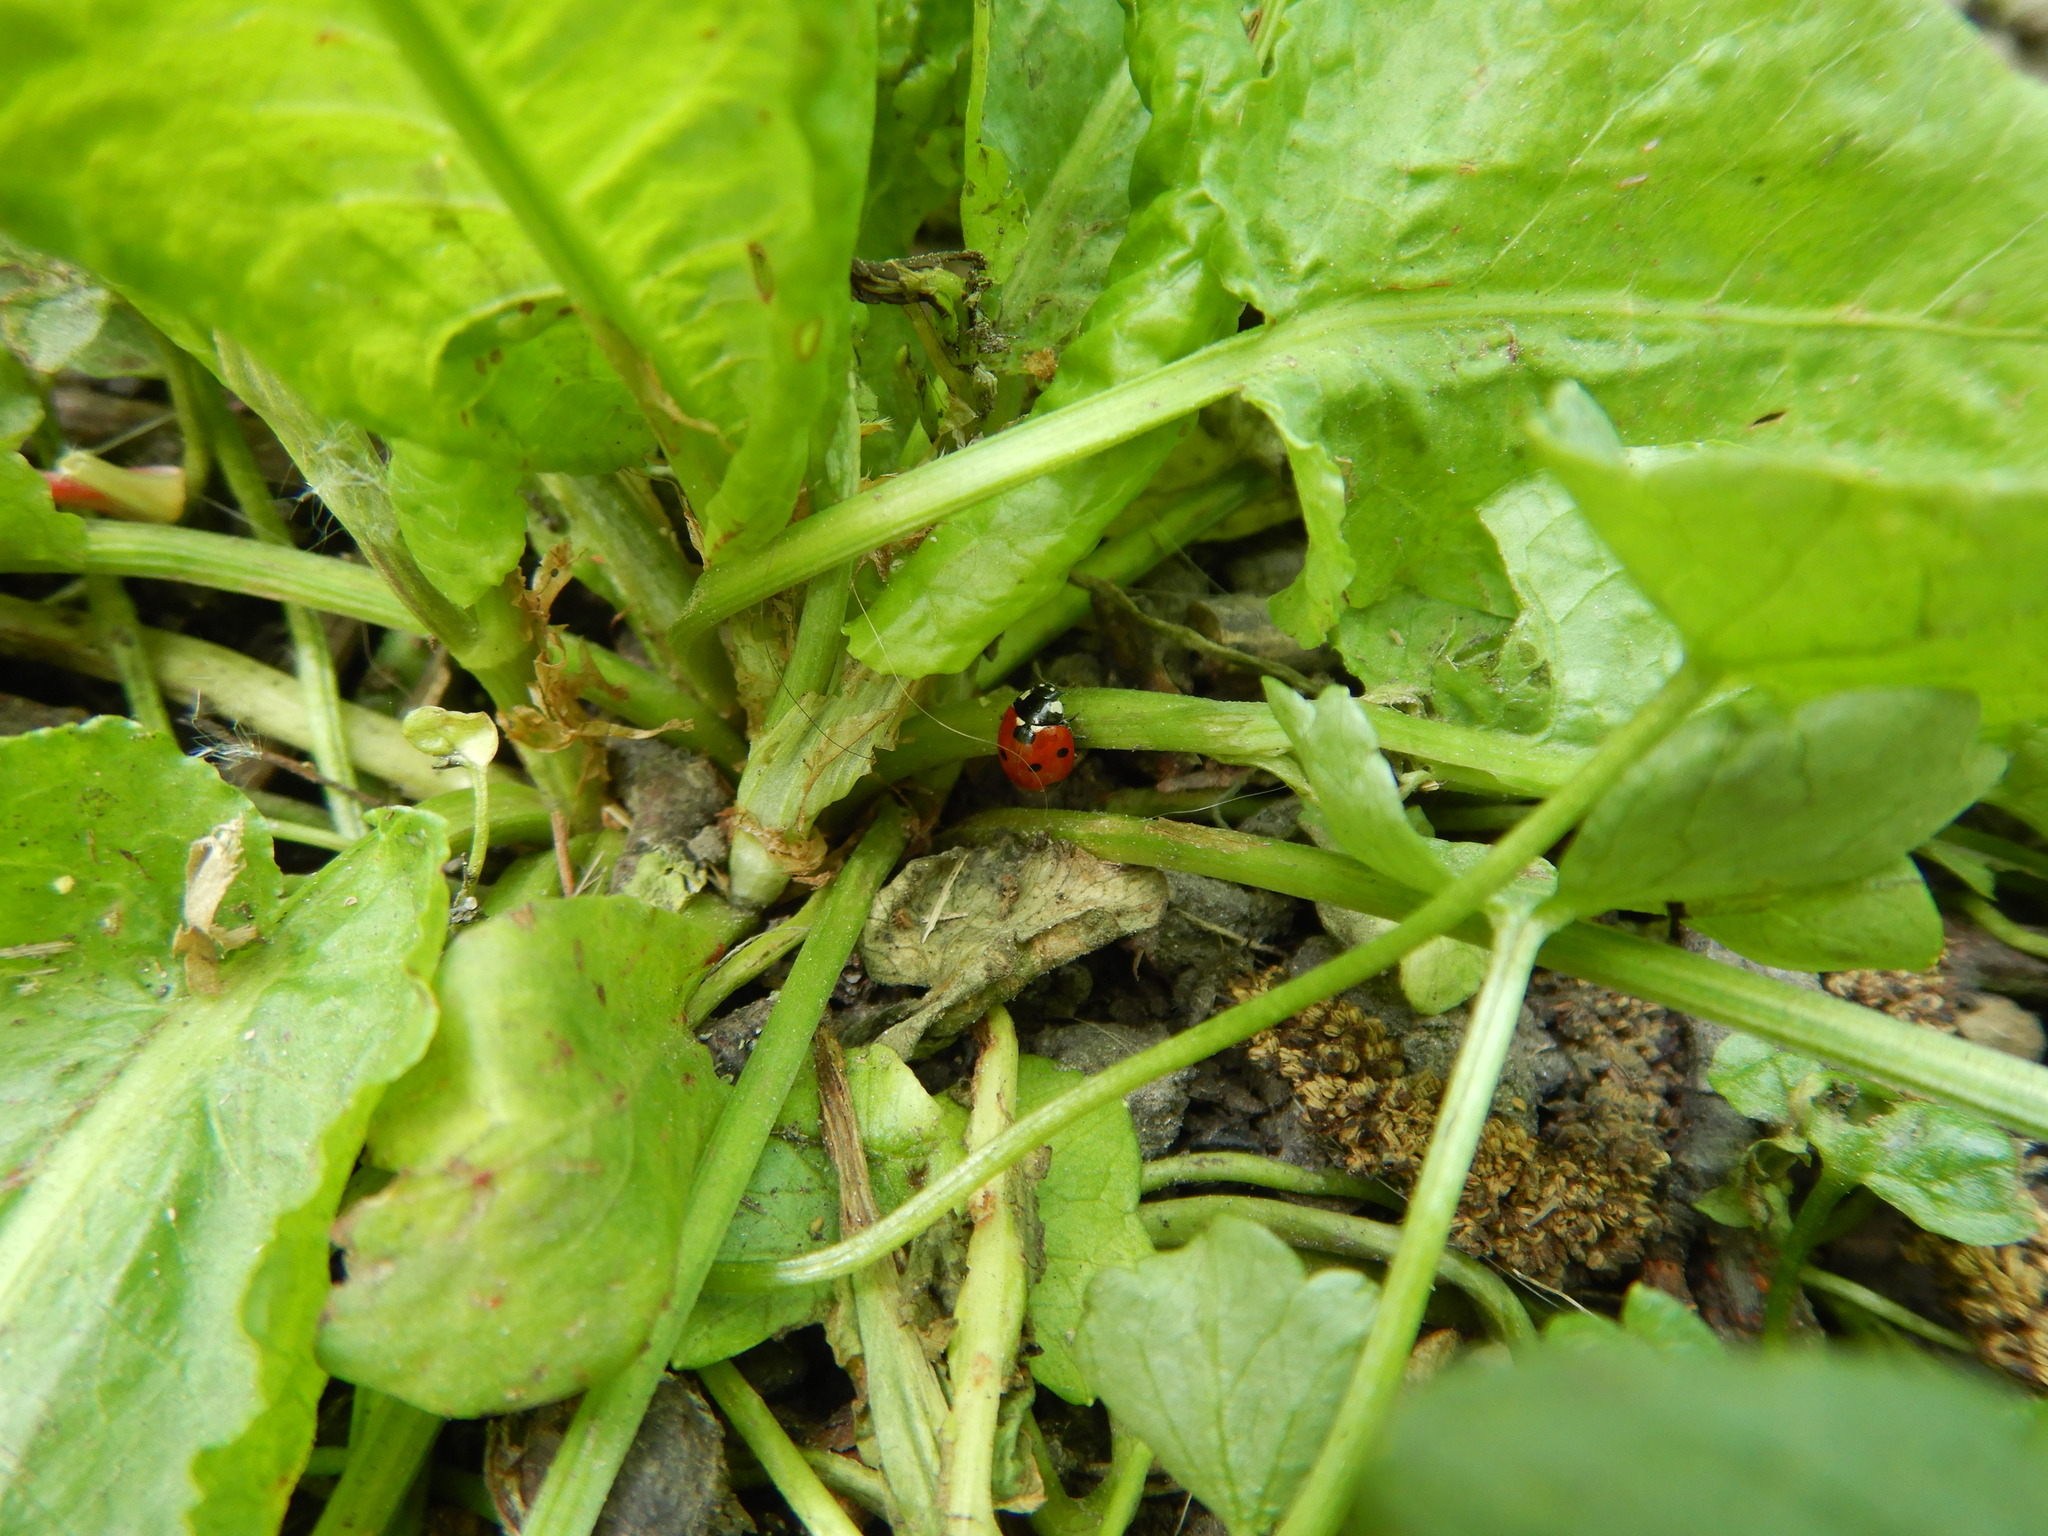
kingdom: Animalia
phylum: Arthropoda
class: Insecta
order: Coleoptera
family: Coccinellidae
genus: Coccinella
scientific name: Coccinella septempunctata
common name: Sevenspotted lady beetle
